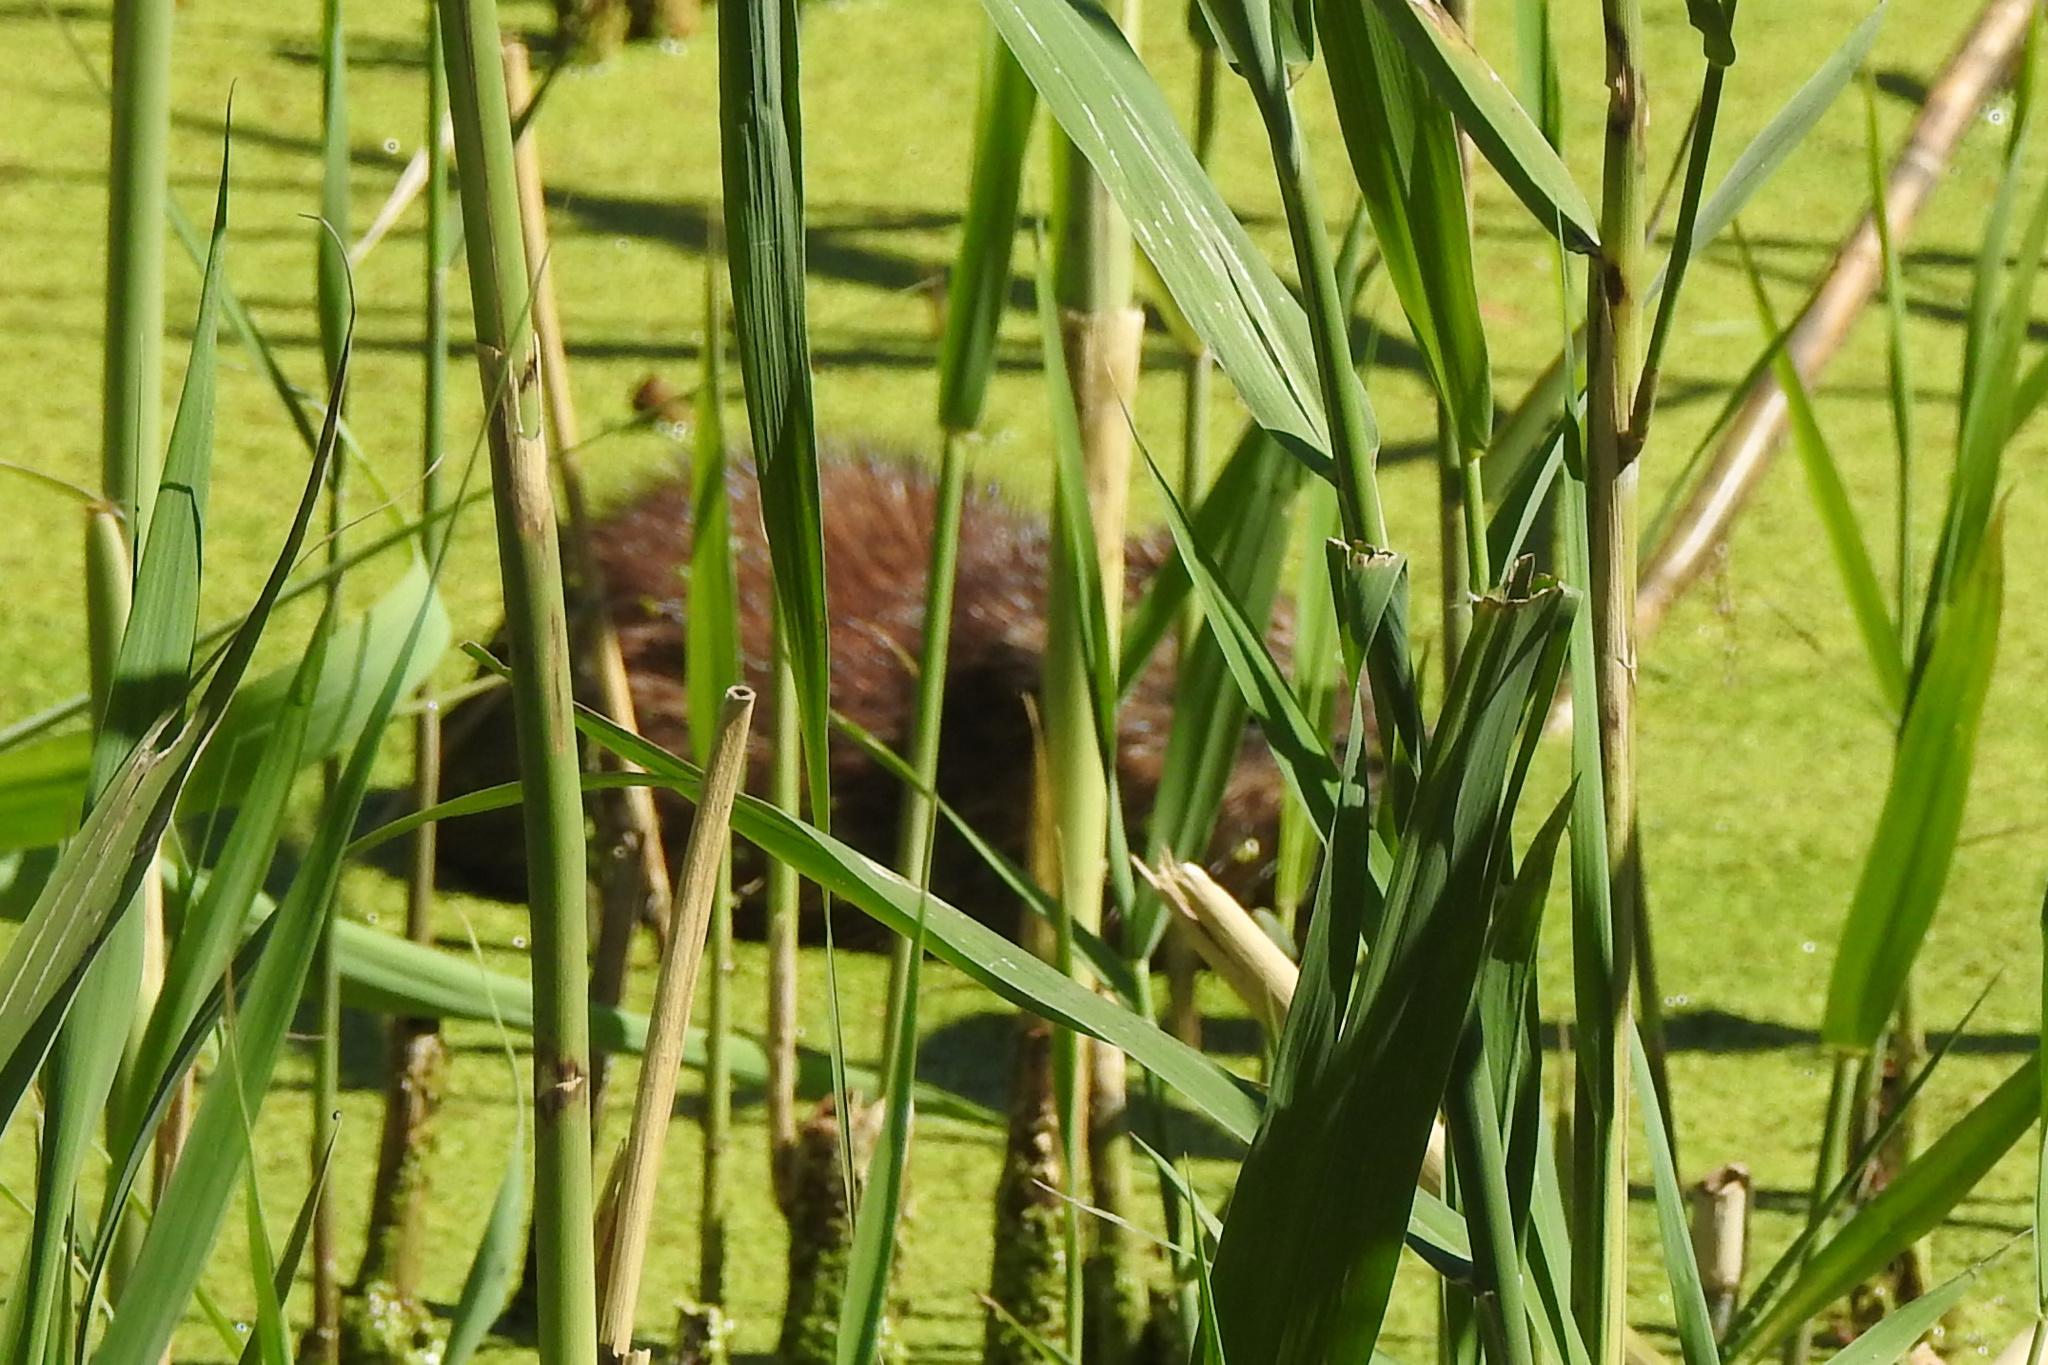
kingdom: Animalia
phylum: Chordata
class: Mammalia
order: Rodentia
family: Cricetidae
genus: Ondatra
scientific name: Ondatra zibethicus
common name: Muskrat
